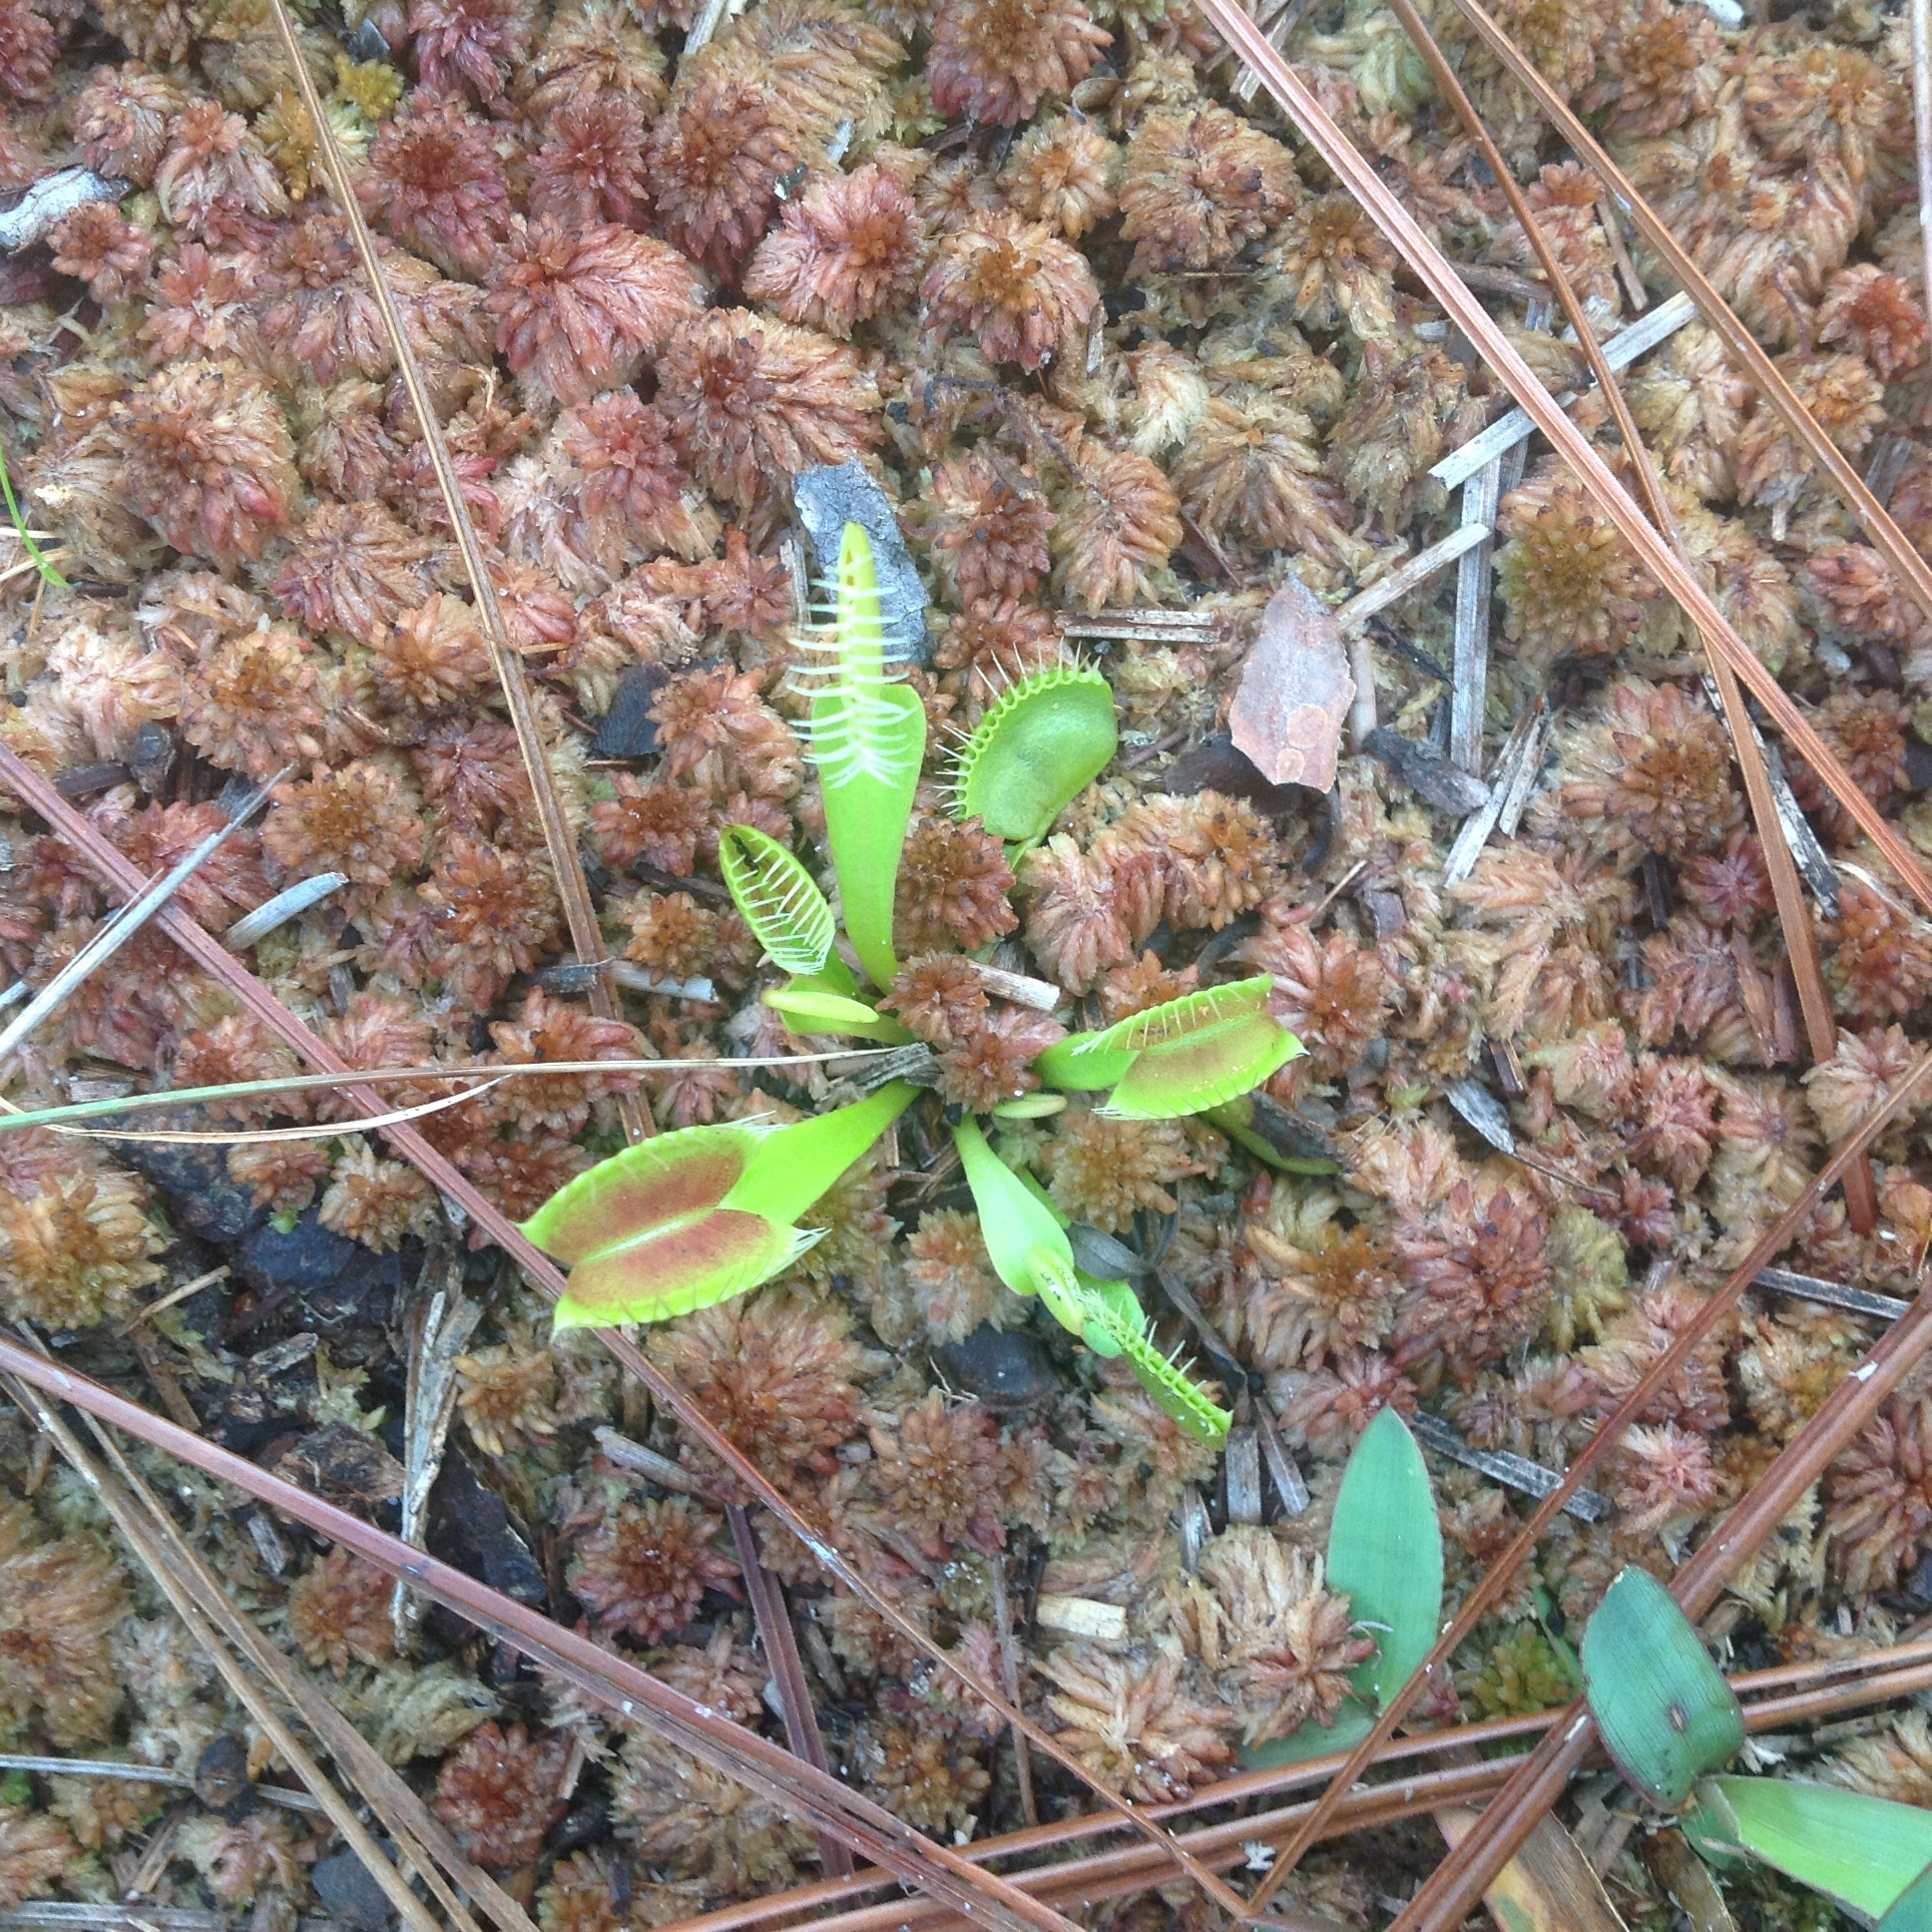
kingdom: Plantae
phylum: Tracheophyta
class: Magnoliopsida
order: Caryophyllales
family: Droseraceae
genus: Dionaea
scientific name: Dionaea muscipula
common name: Venus flytrap
